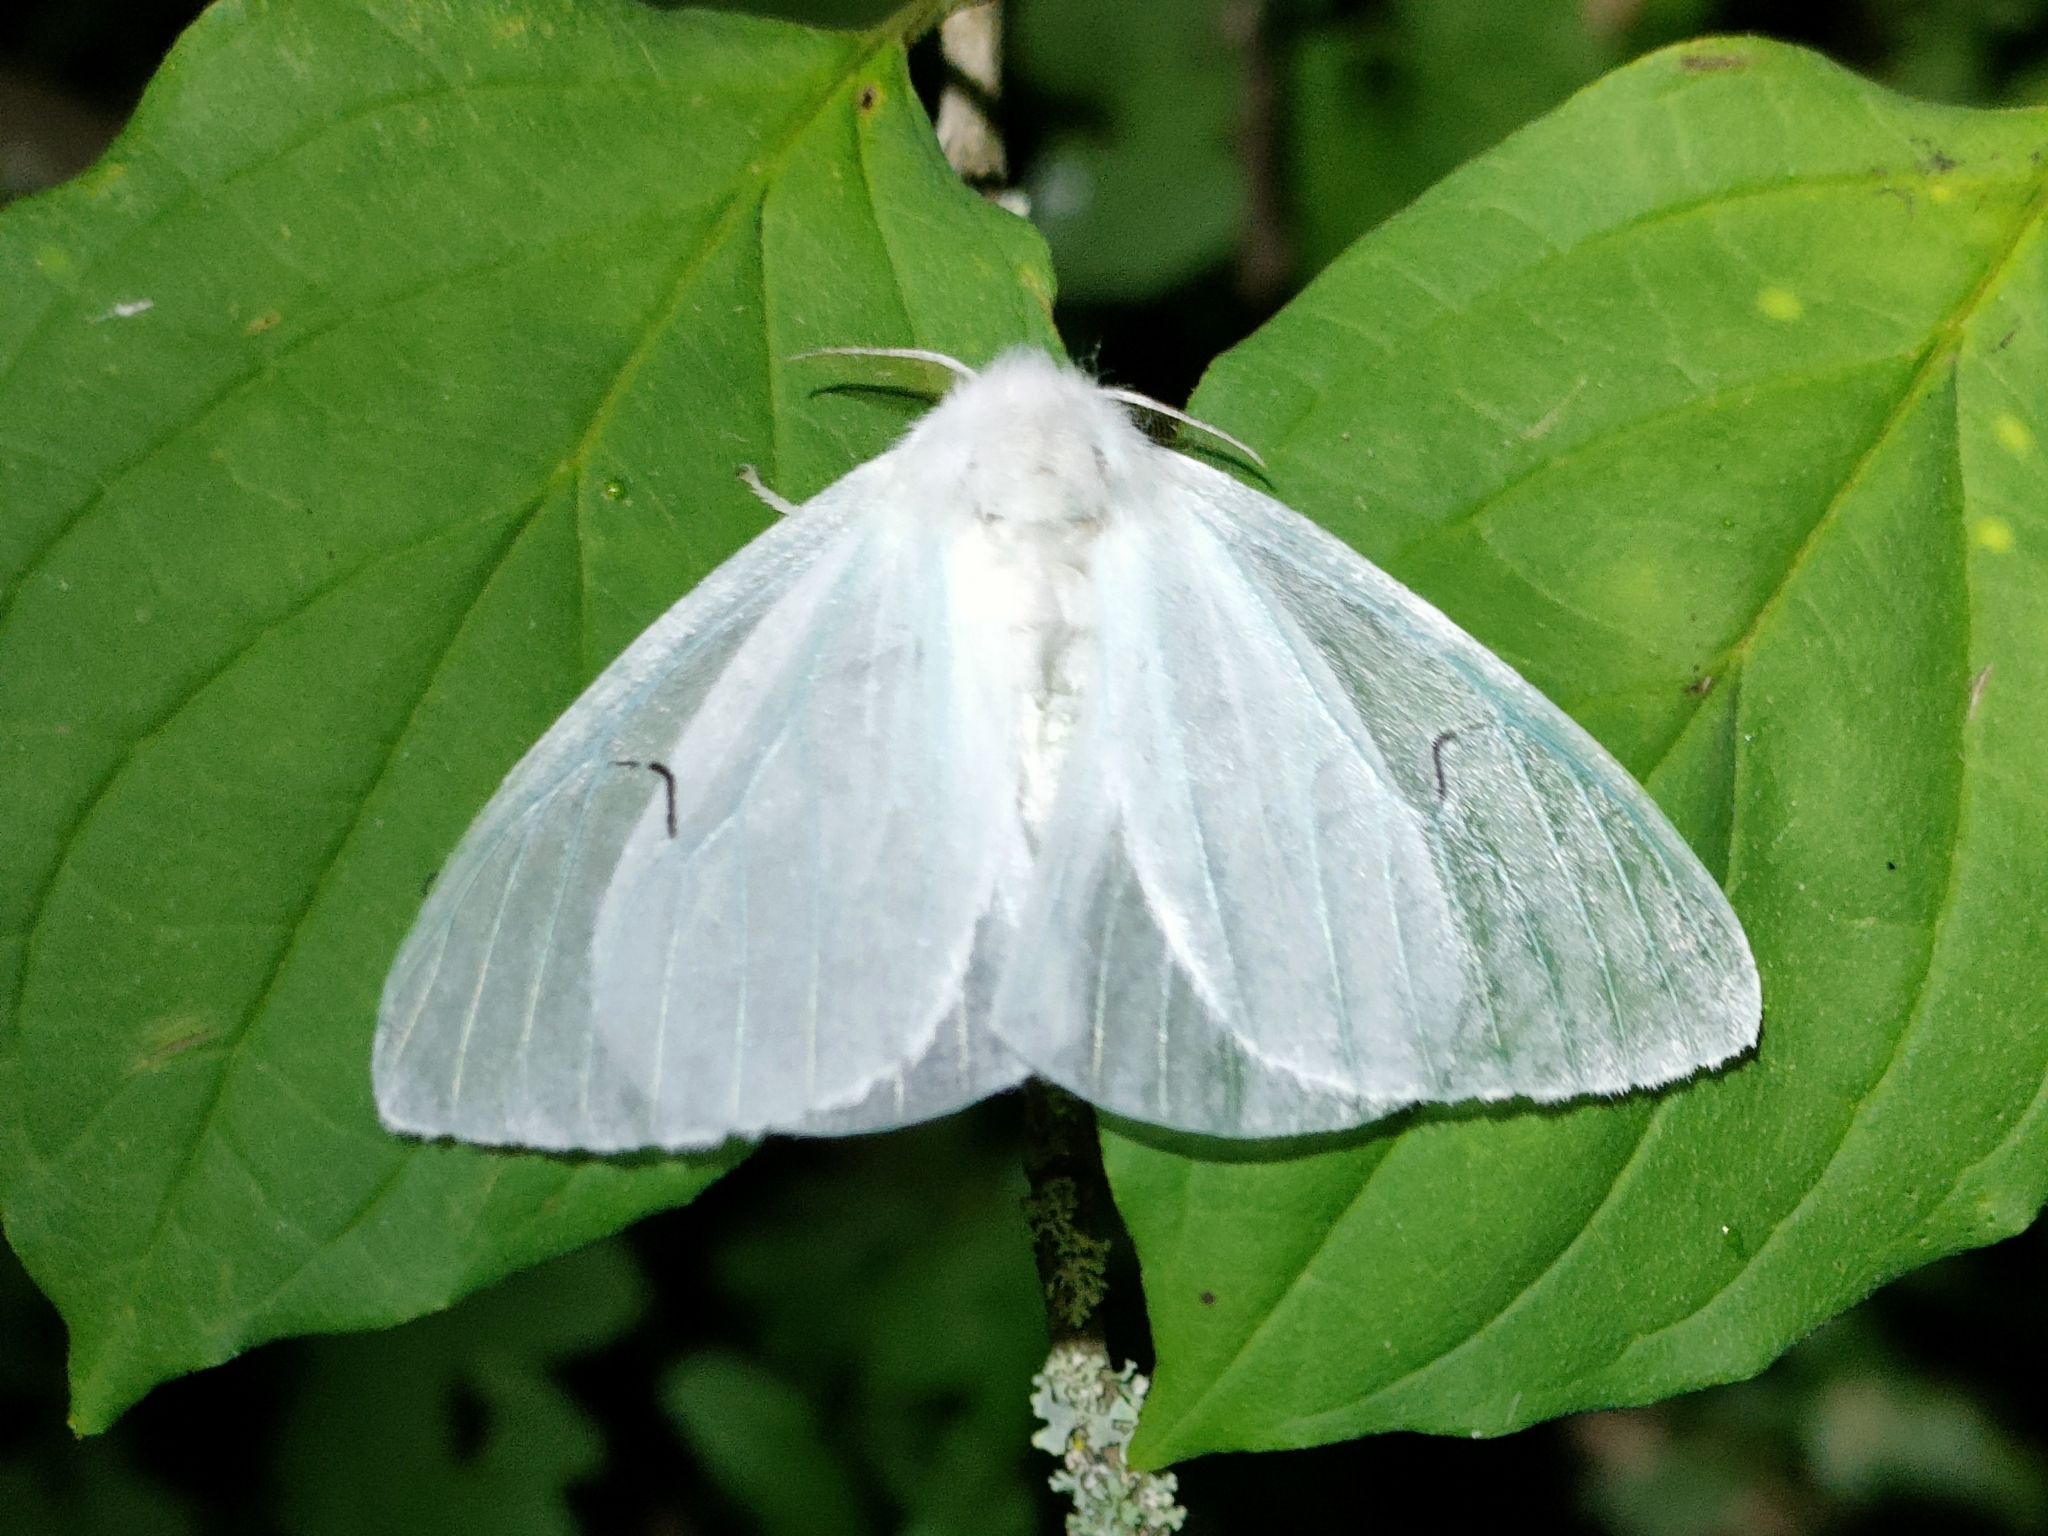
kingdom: Animalia
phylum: Arthropoda
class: Insecta
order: Lepidoptera
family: Erebidae
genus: Arctornis
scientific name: Arctornis l-nigrum
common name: Black v moth
